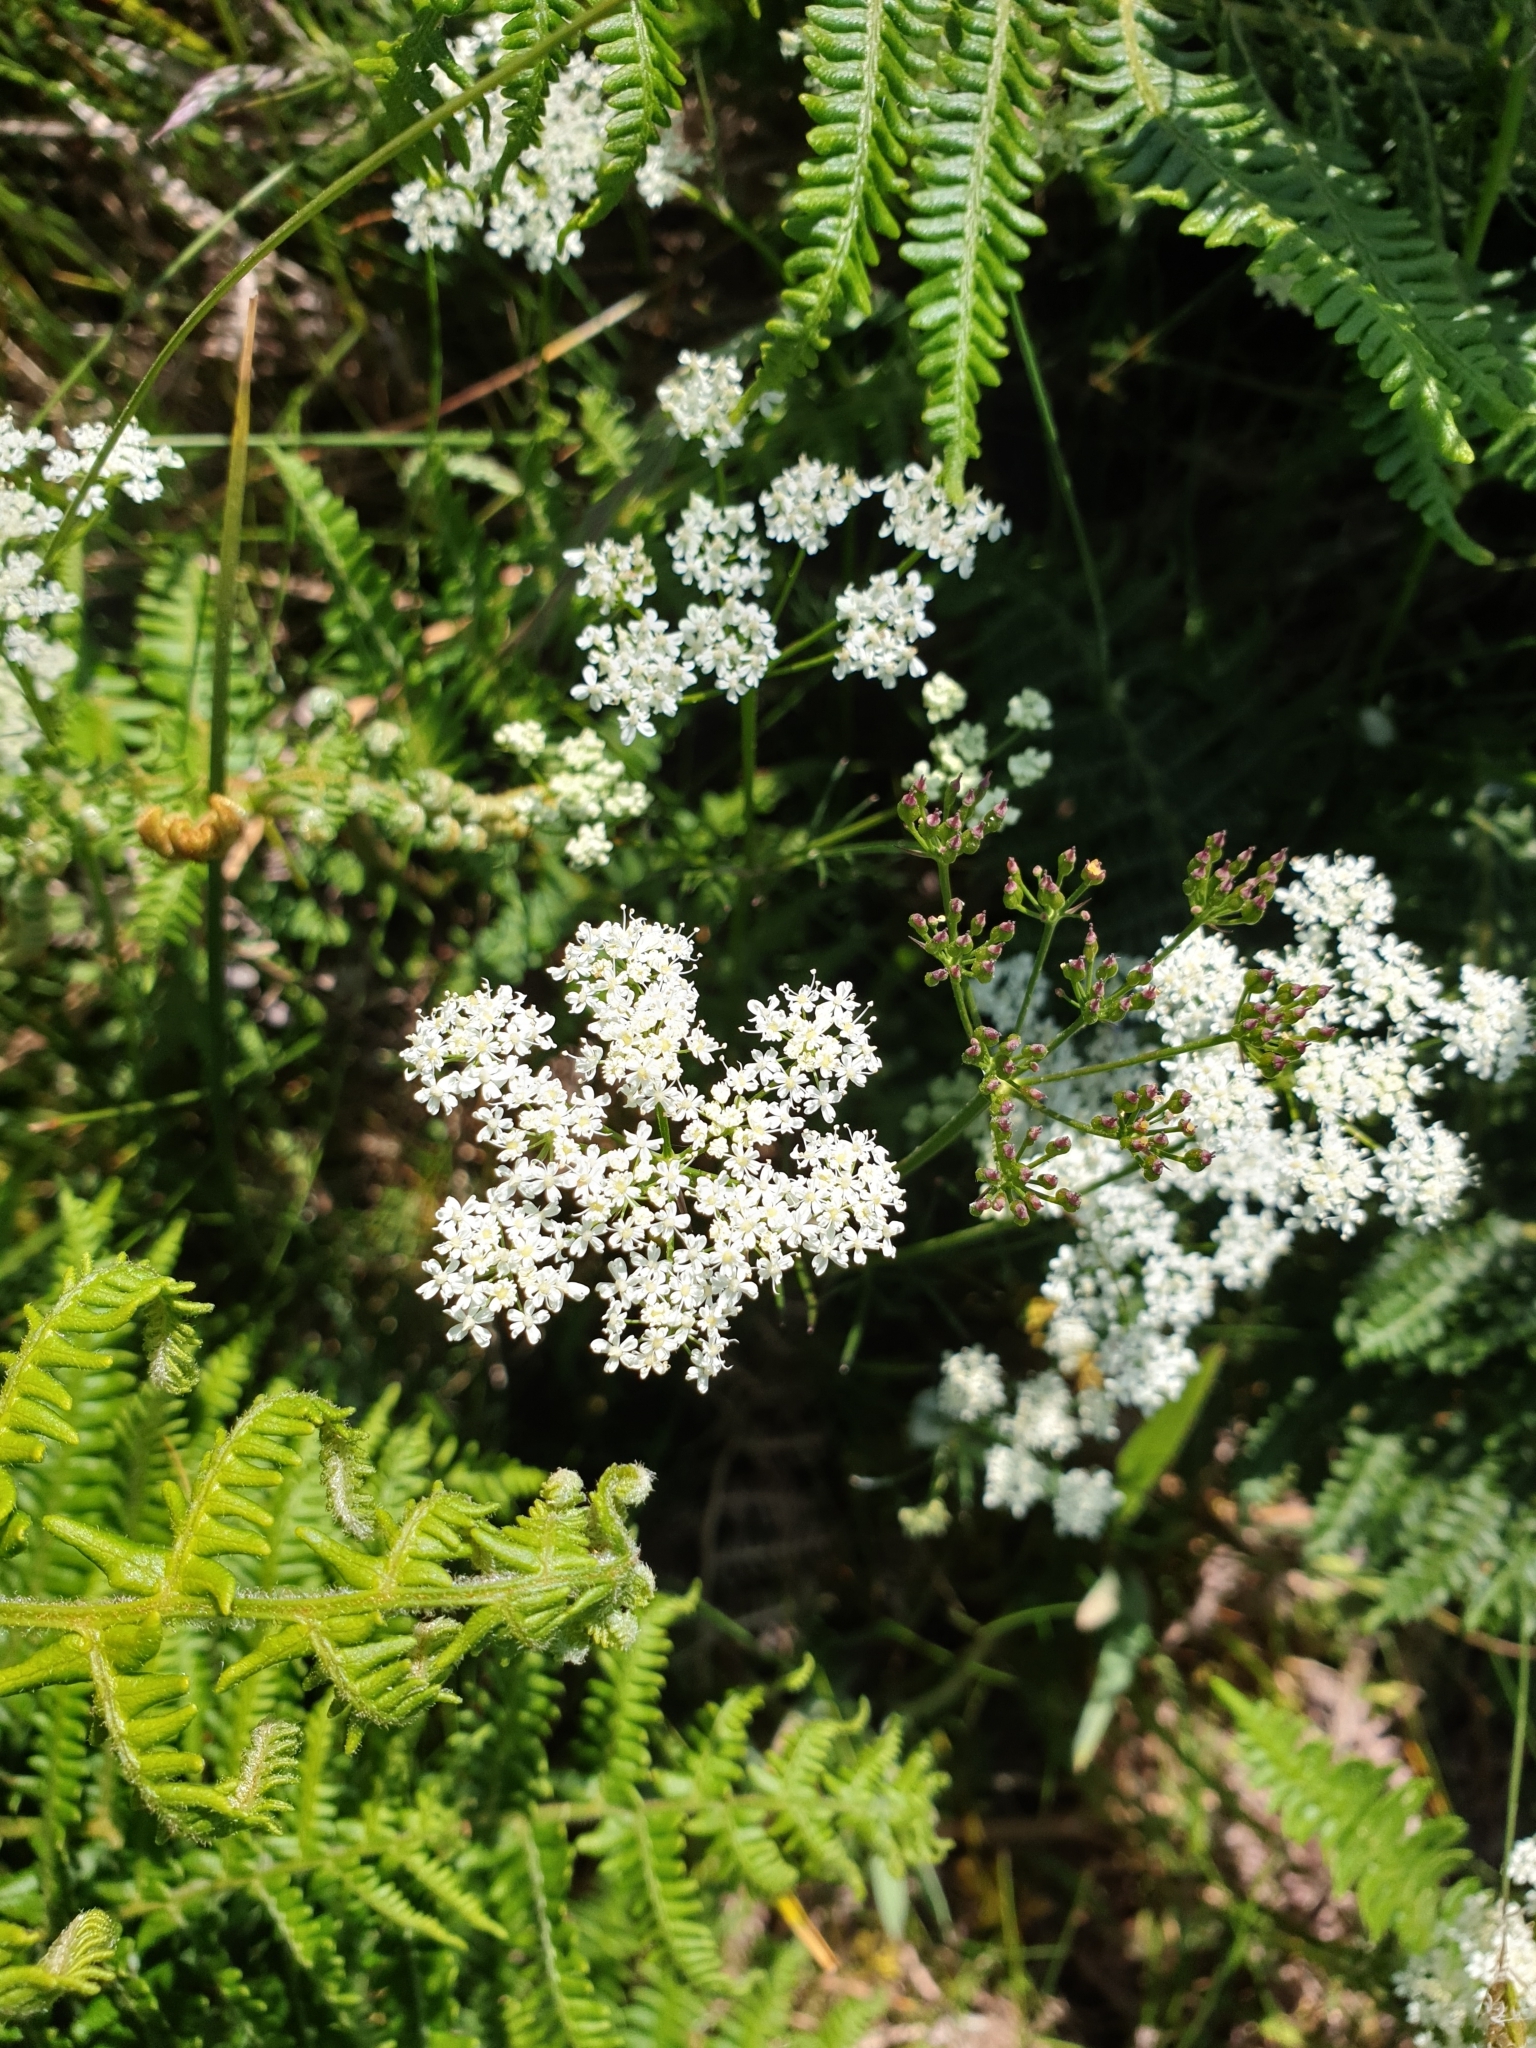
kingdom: Plantae
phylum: Tracheophyta
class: Magnoliopsida
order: Apiales
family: Apiaceae
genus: Conopodium
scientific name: Conopodium majus
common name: Pignut
